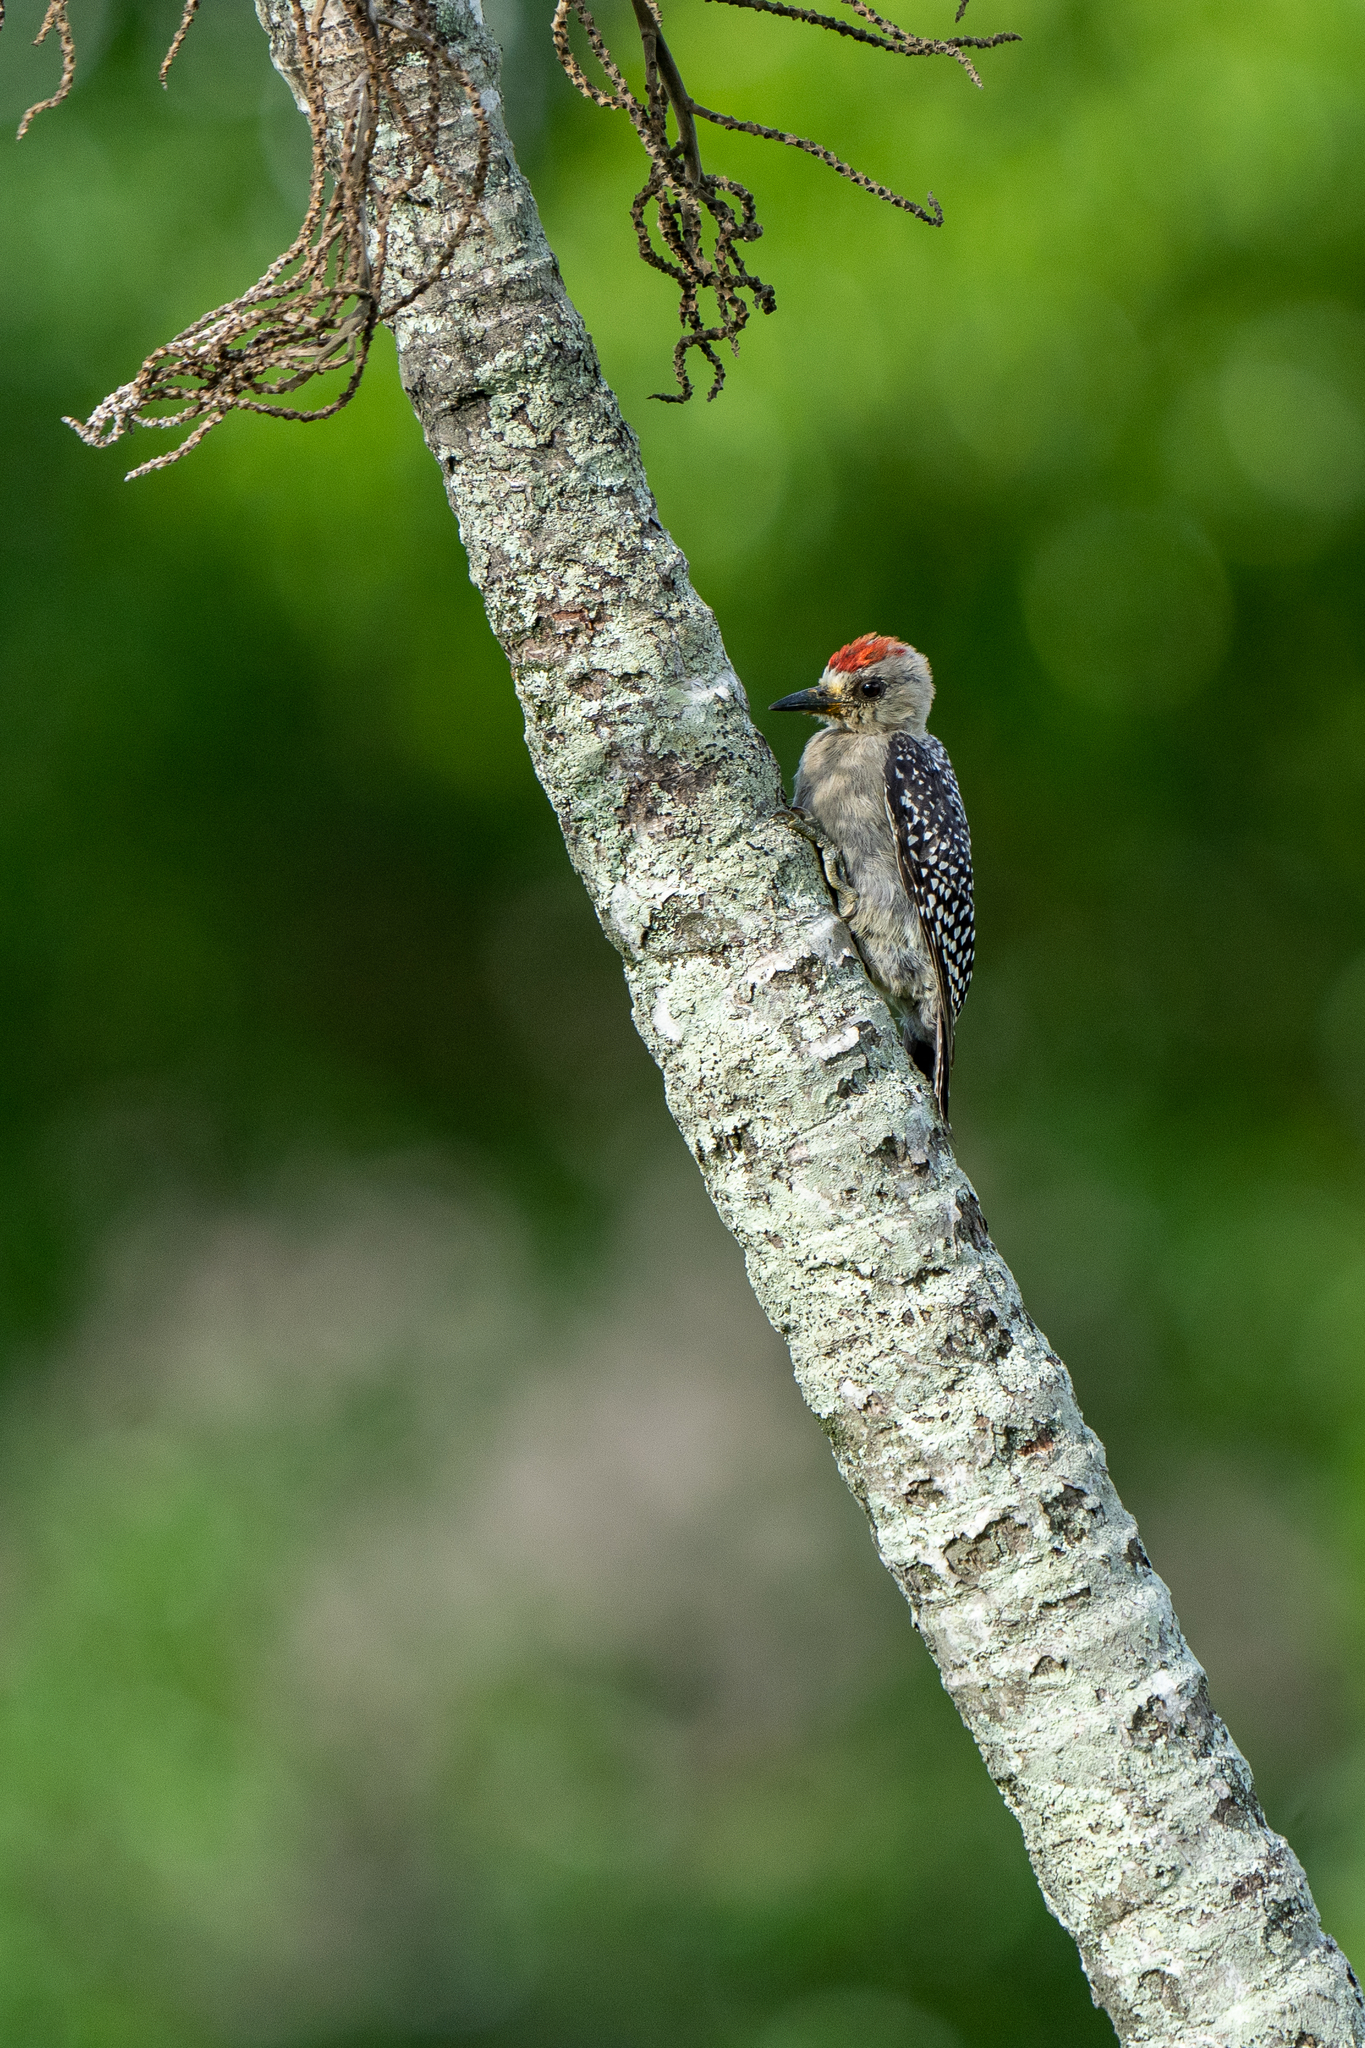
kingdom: Animalia
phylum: Chordata
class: Aves
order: Piciformes
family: Picidae
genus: Melanerpes
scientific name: Melanerpes rubricapillus
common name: Red-crowned woodpecker
